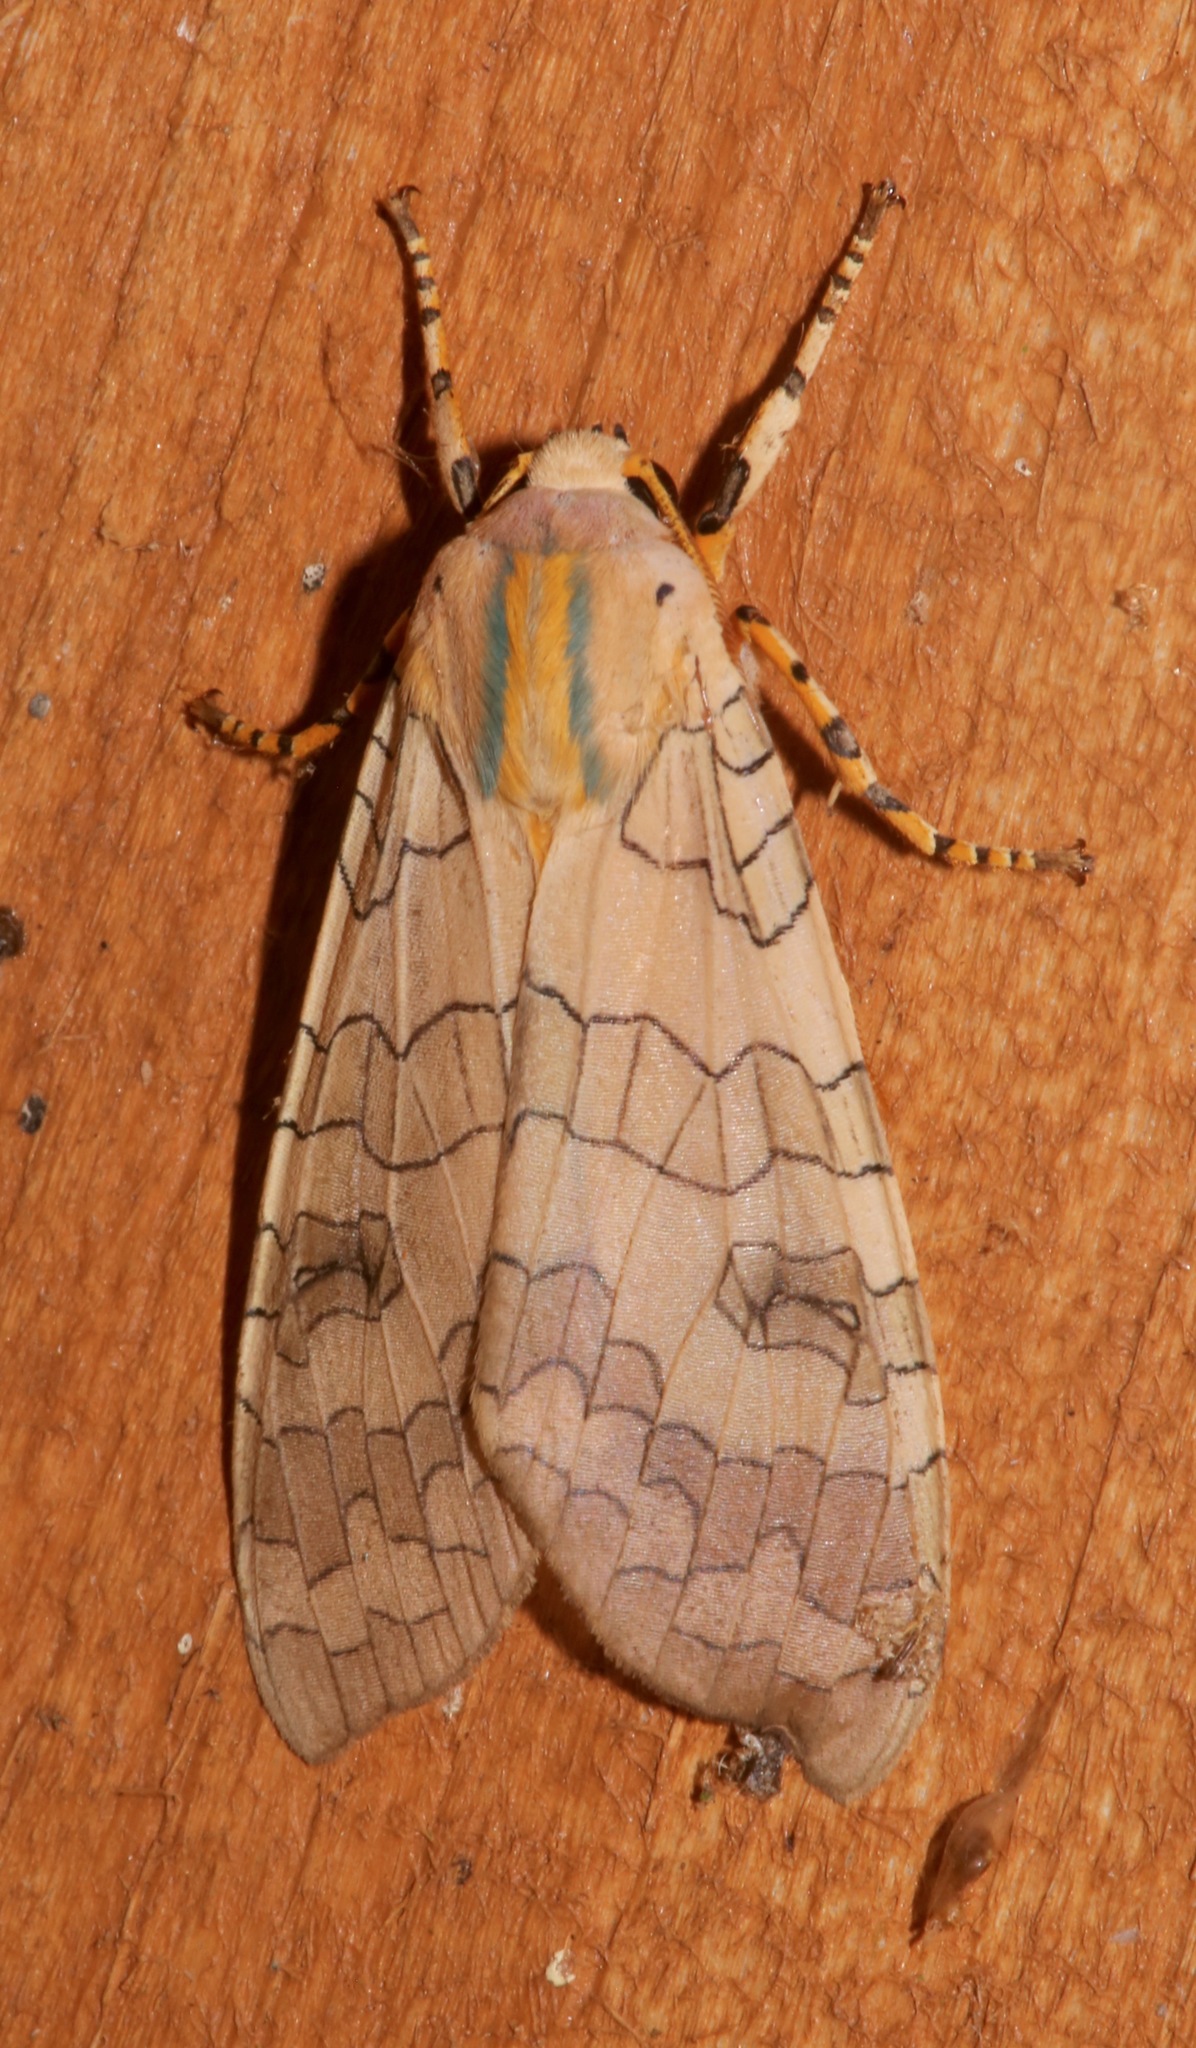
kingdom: Animalia
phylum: Arthropoda
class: Insecta
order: Lepidoptera
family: Erebidae
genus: Halysidota
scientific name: Halysidota tessellaris
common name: Banded tussock moth
